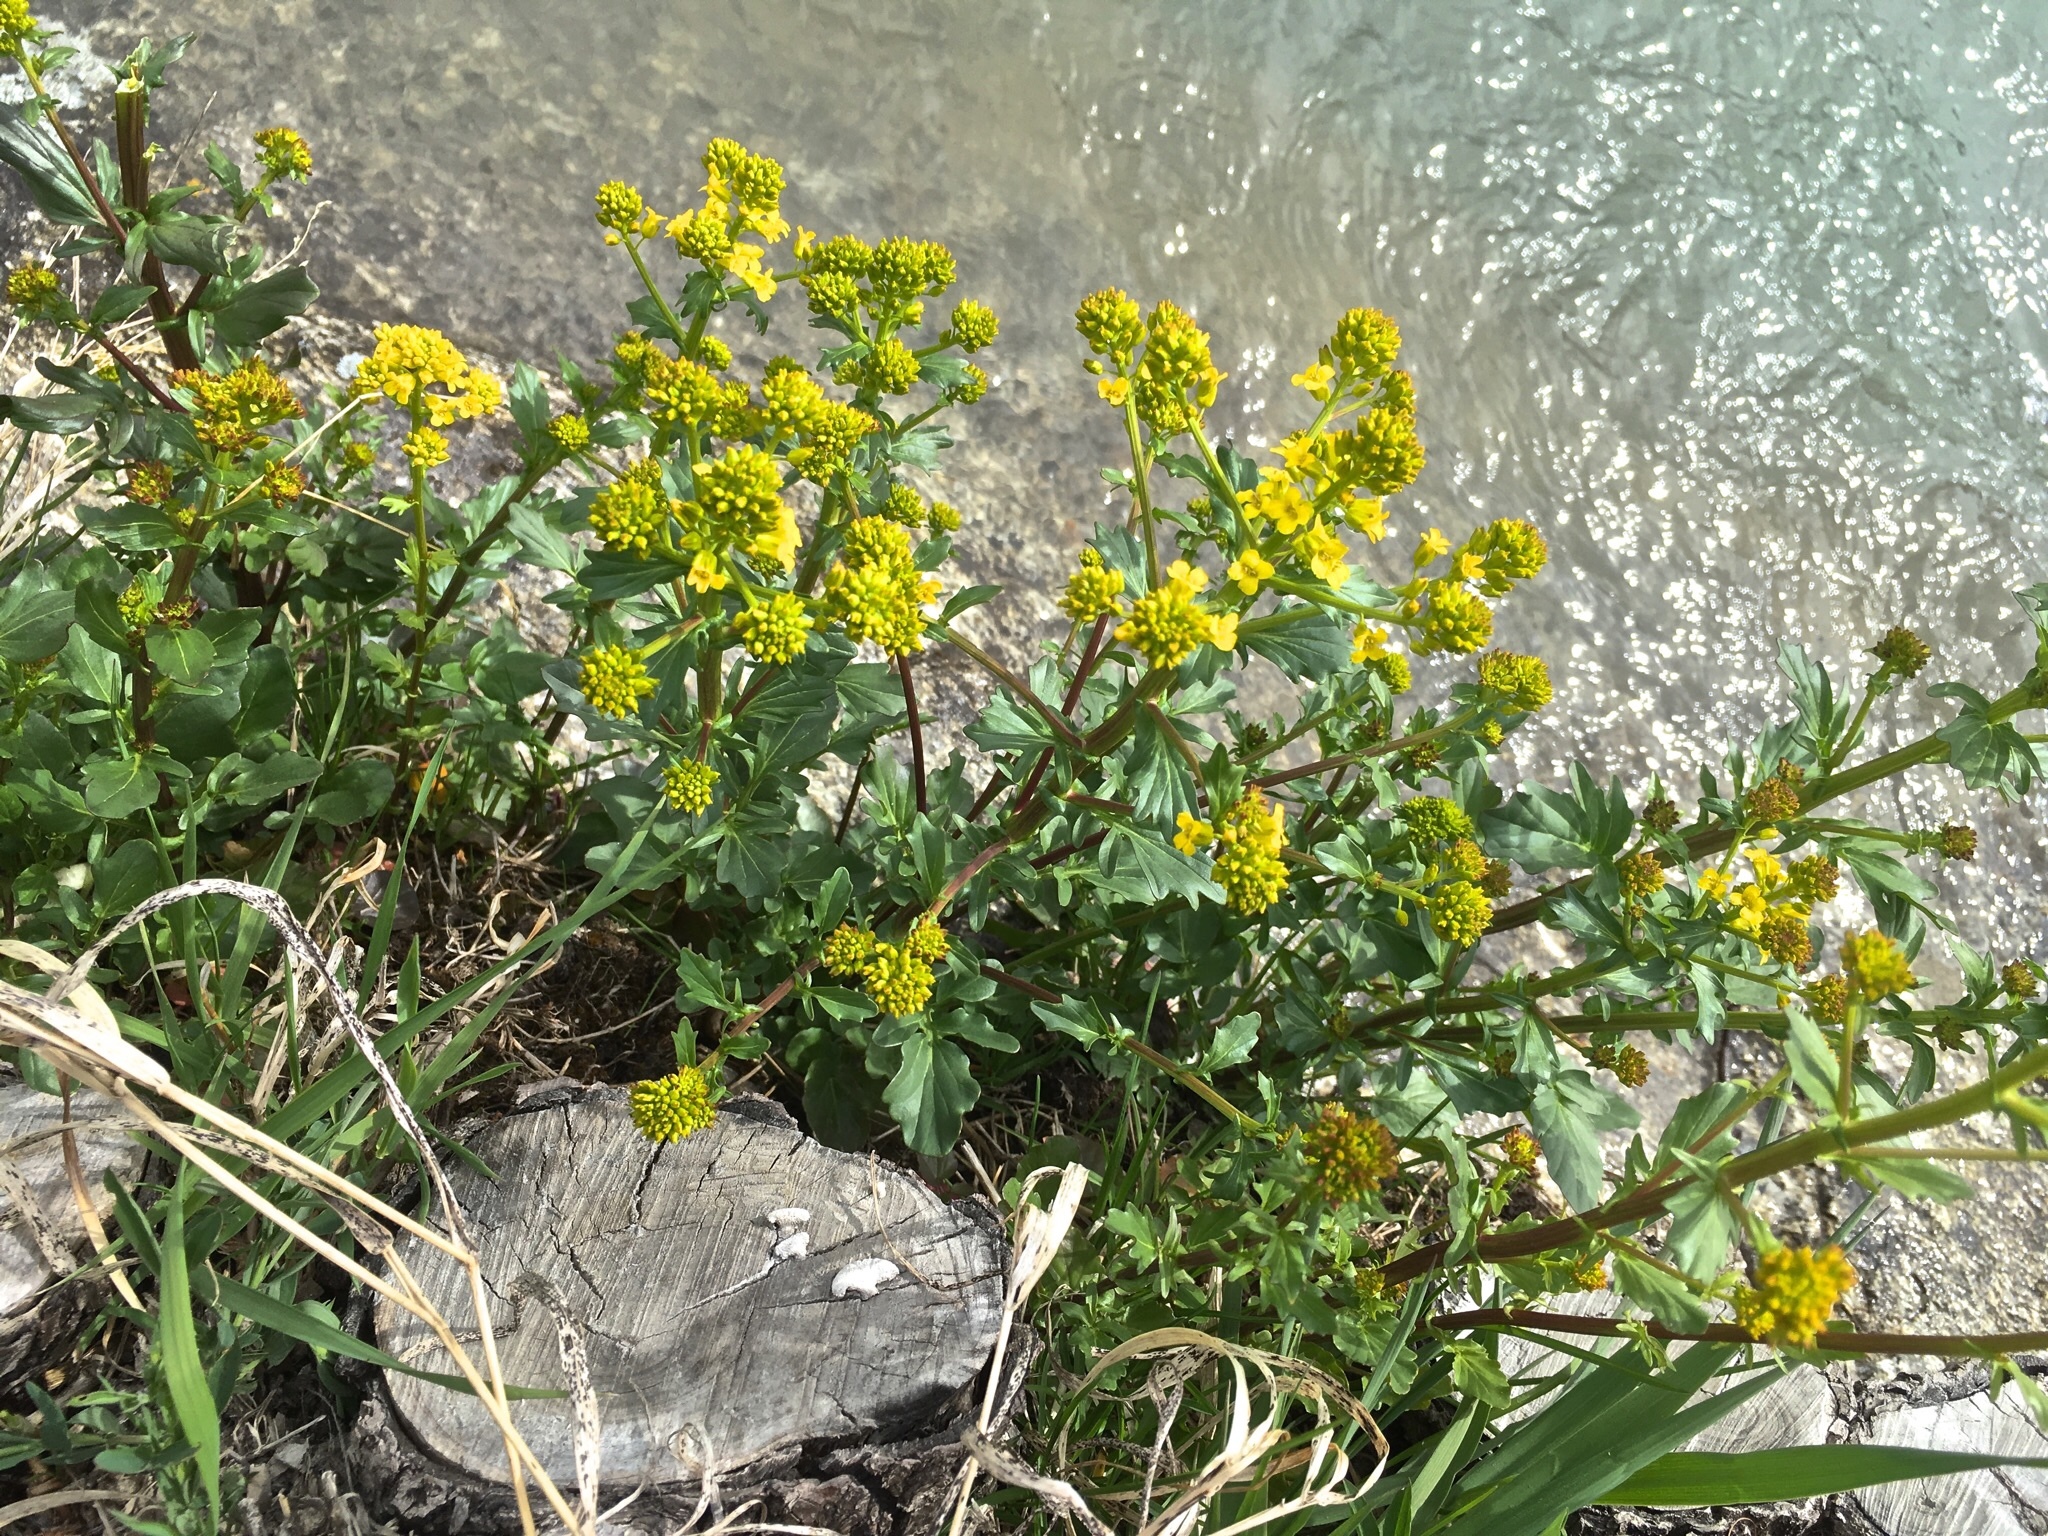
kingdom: Plantae
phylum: Tracheophyta
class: Magnoliopsida
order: Brassicales
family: Brassicaceae
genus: Barbarea
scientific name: Barbarea vulgaris
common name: Cressy-greens
